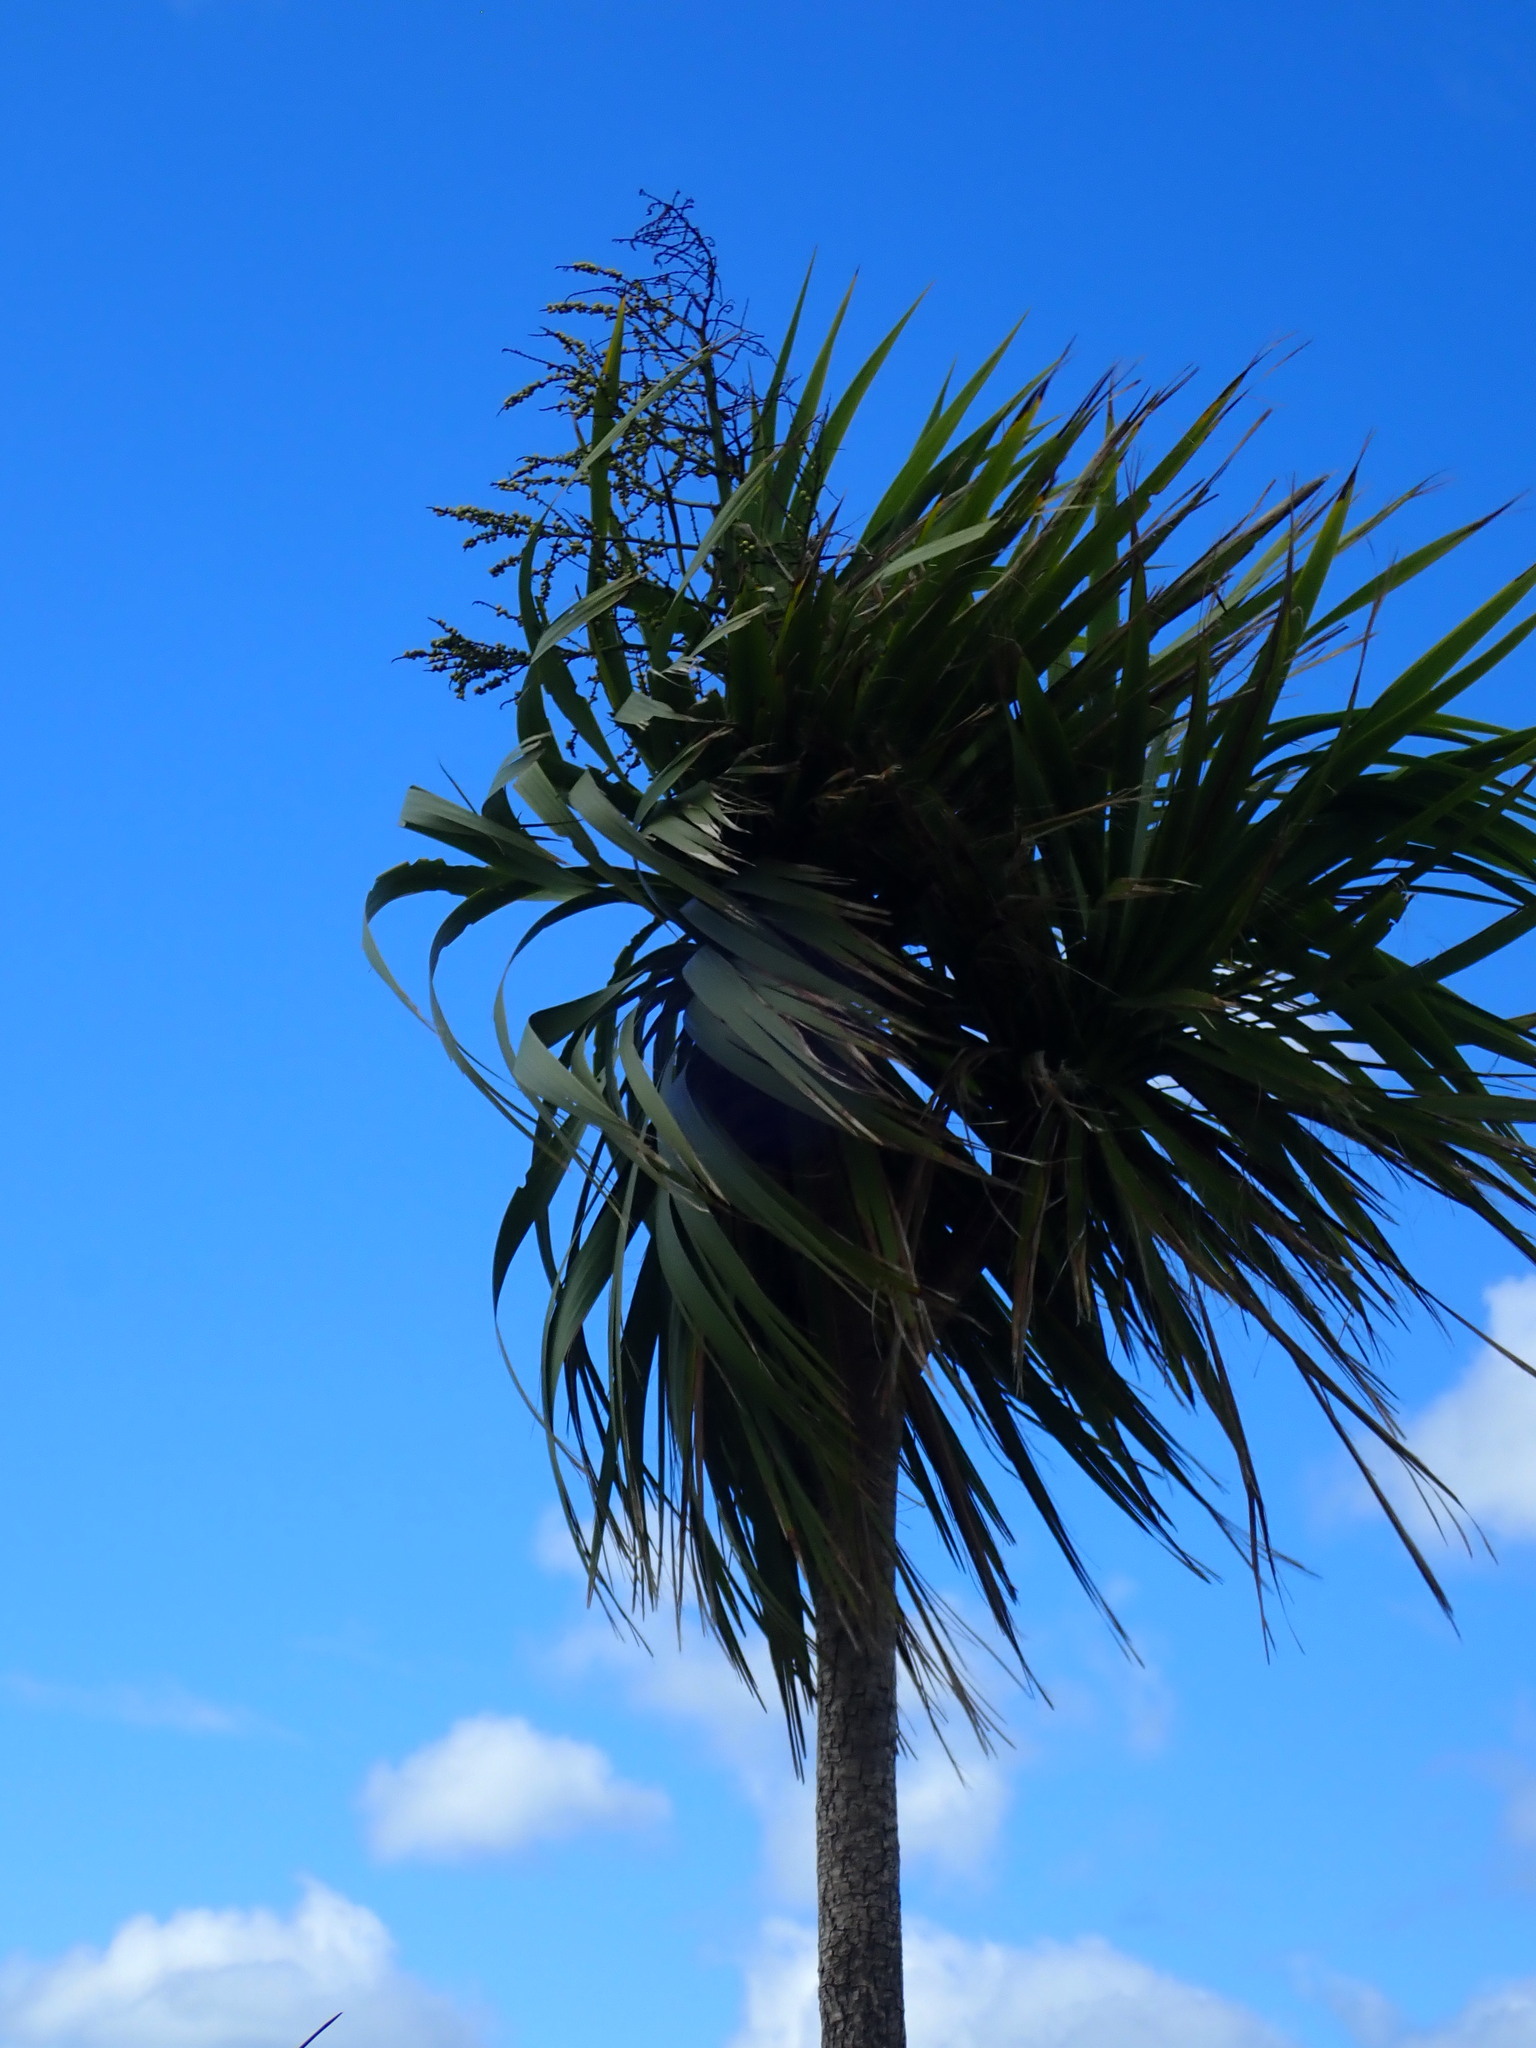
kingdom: Plantae
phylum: Tracheophyta
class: Liliopsida
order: Asparagales
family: Asparagaceae
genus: Cordyline
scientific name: Cordyline australis
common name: Cabbage-palm
